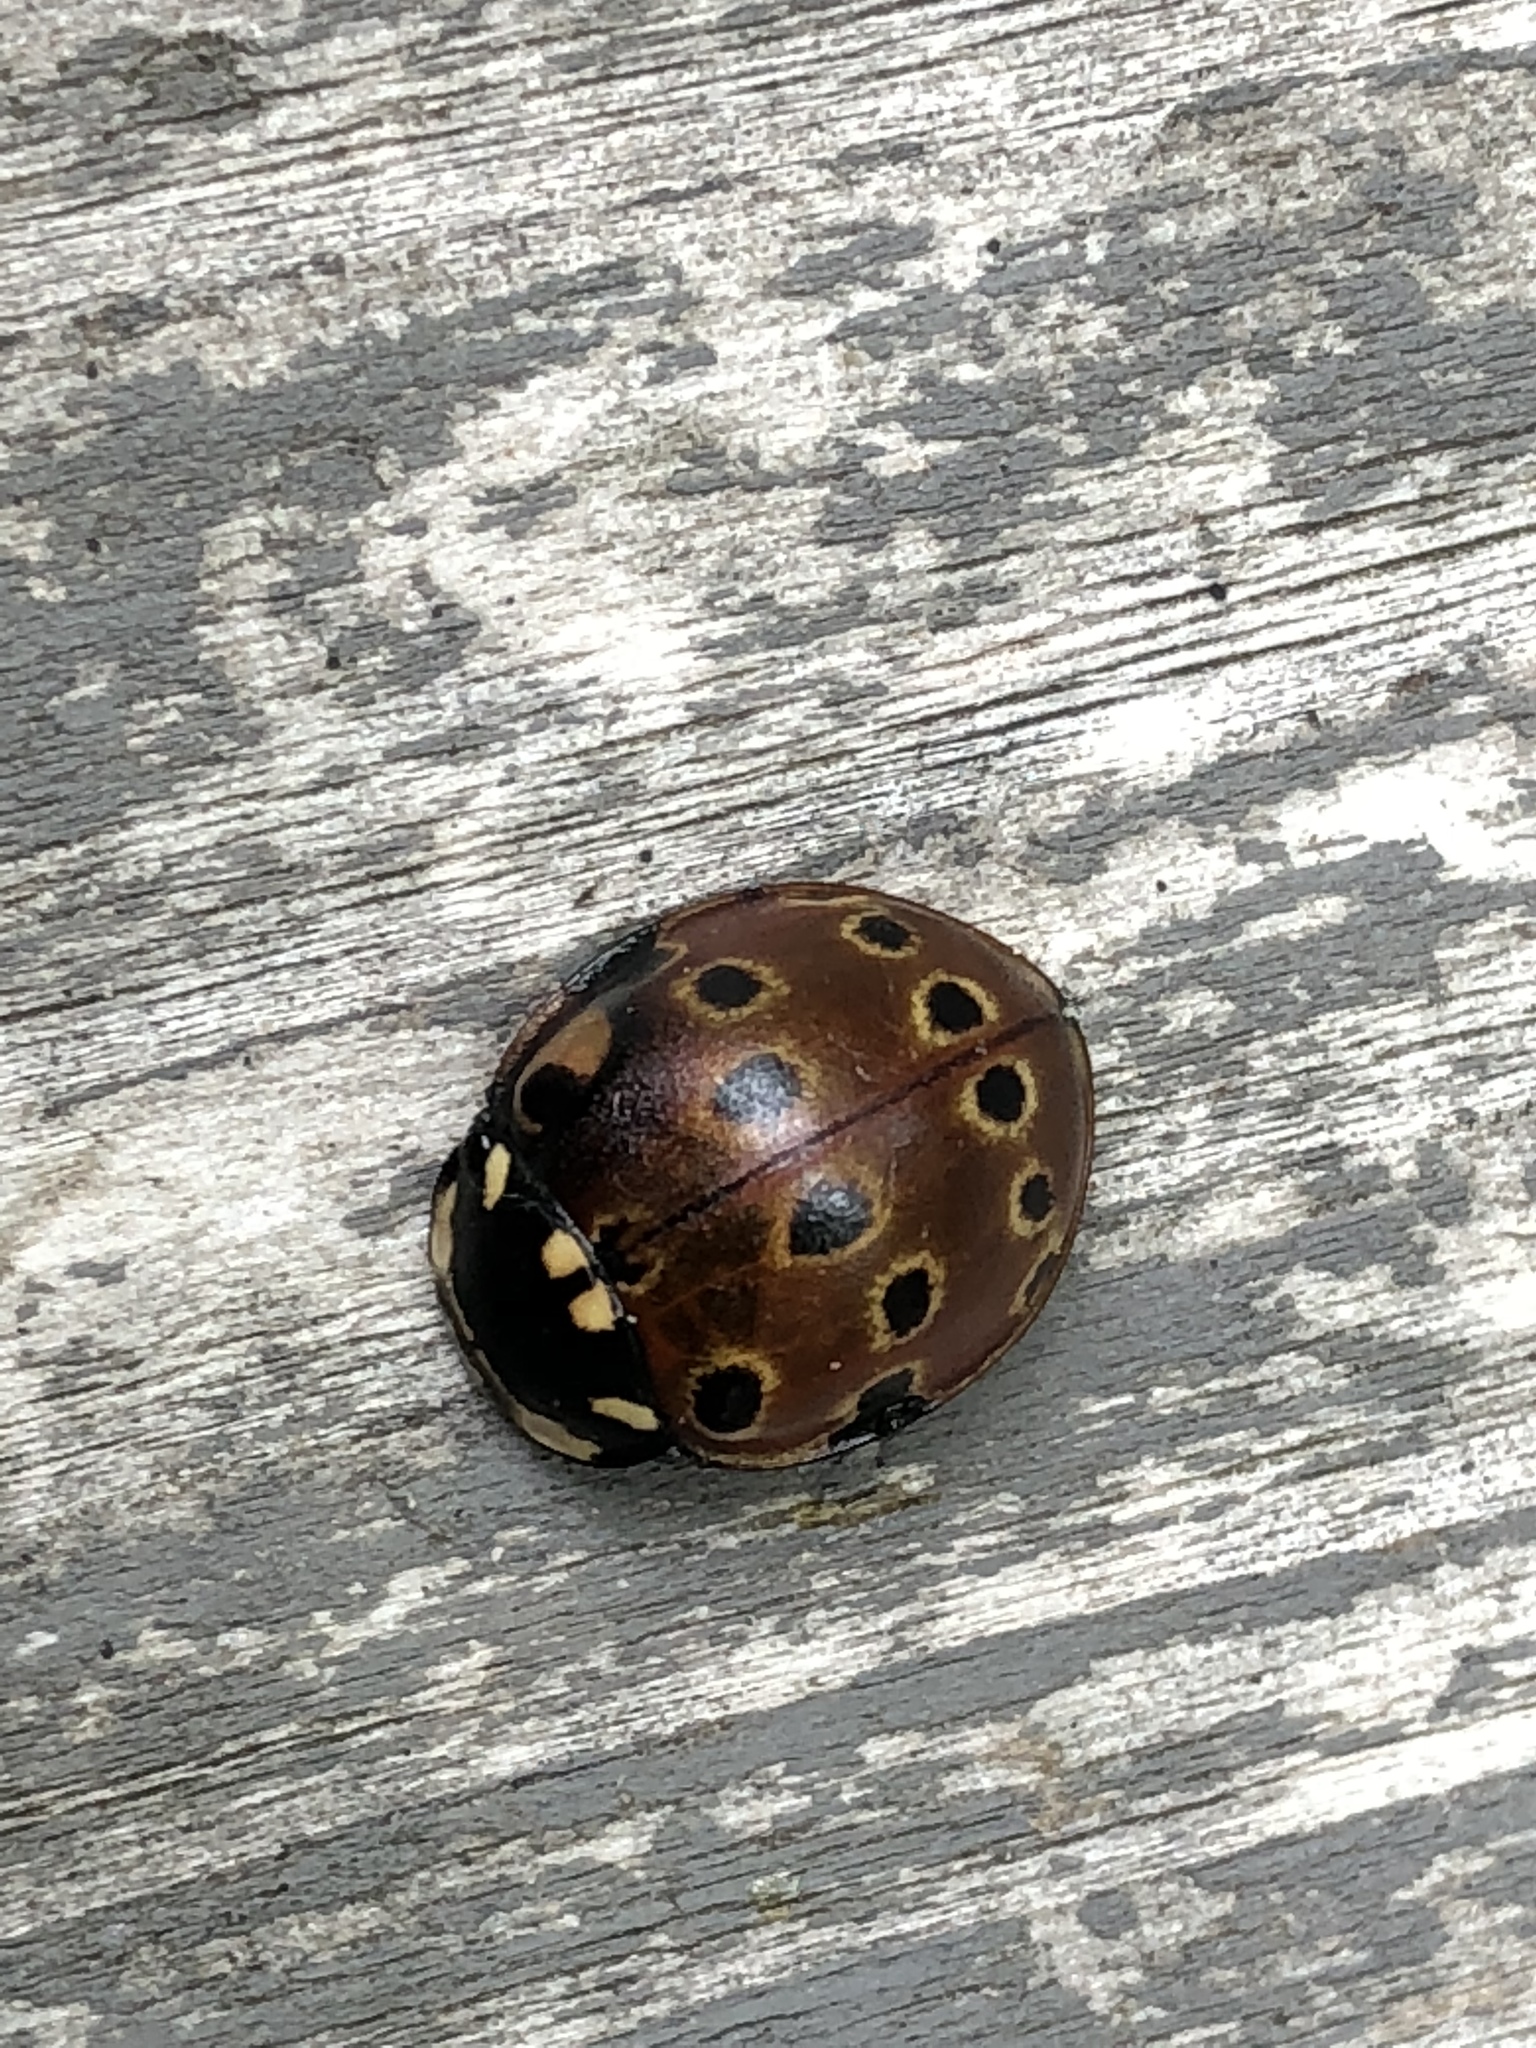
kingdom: Animalia
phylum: Arthropoda
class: Insecta
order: Coleoptera
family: Coccinellidae
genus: Anatis
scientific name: Anatis mali
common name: Eye-spotted lady beetle
